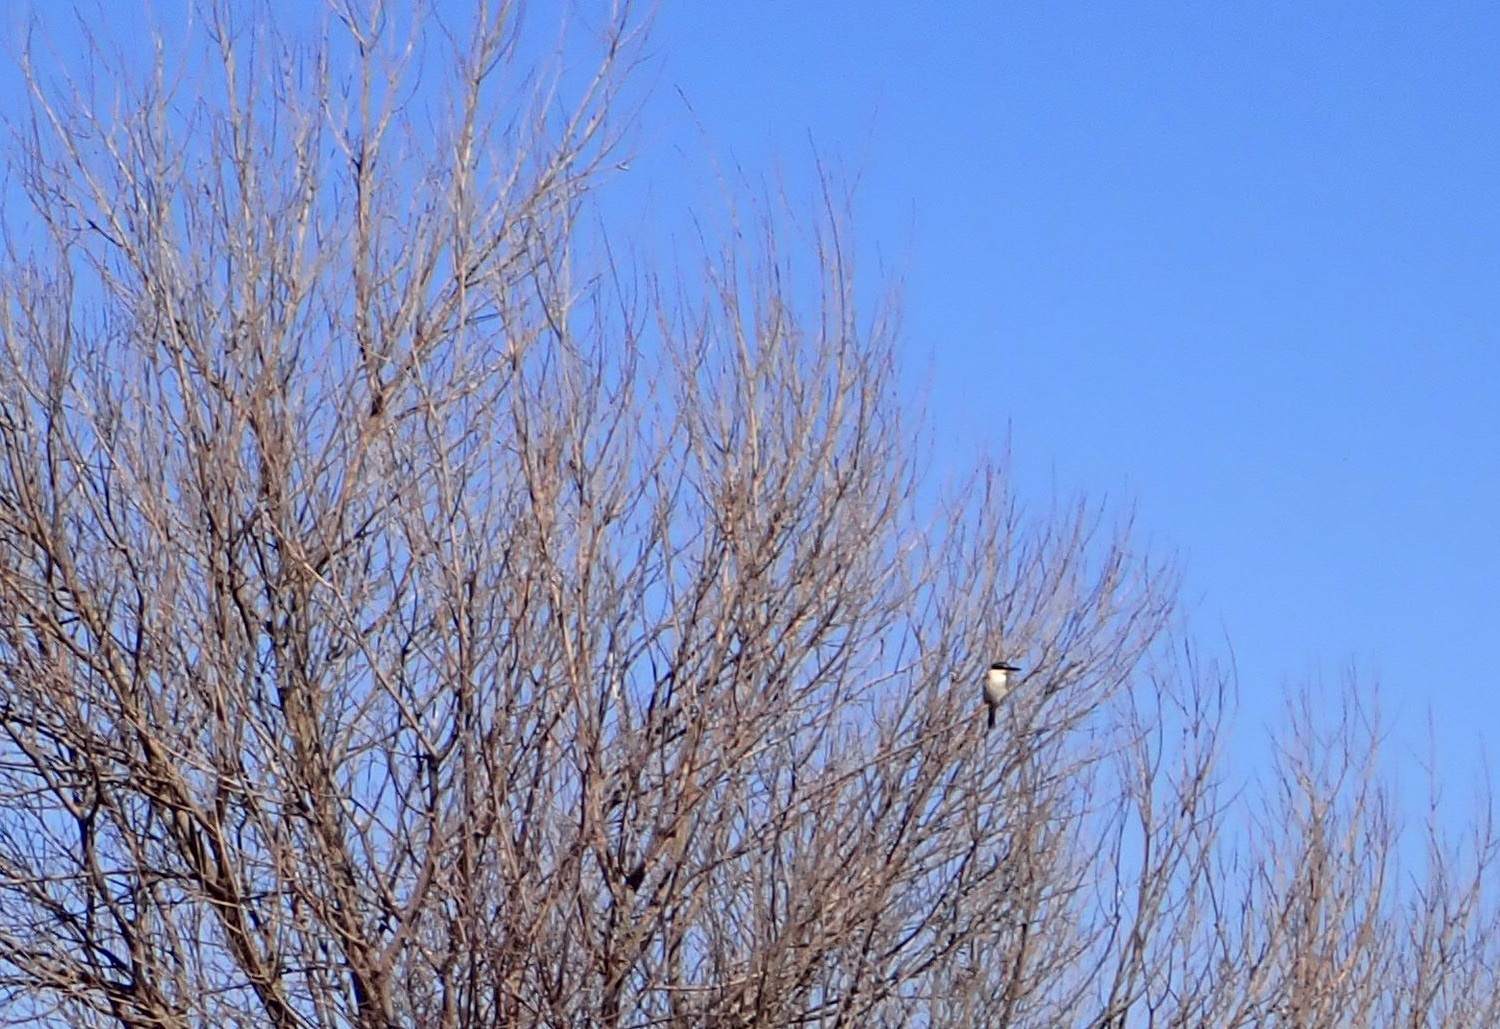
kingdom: Animalia
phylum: Chordata
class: Aves
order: Coraciiformes
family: Alcedinidae
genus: Todiramphus
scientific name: Todiramphus sanctus
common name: Sacred kingfisher
